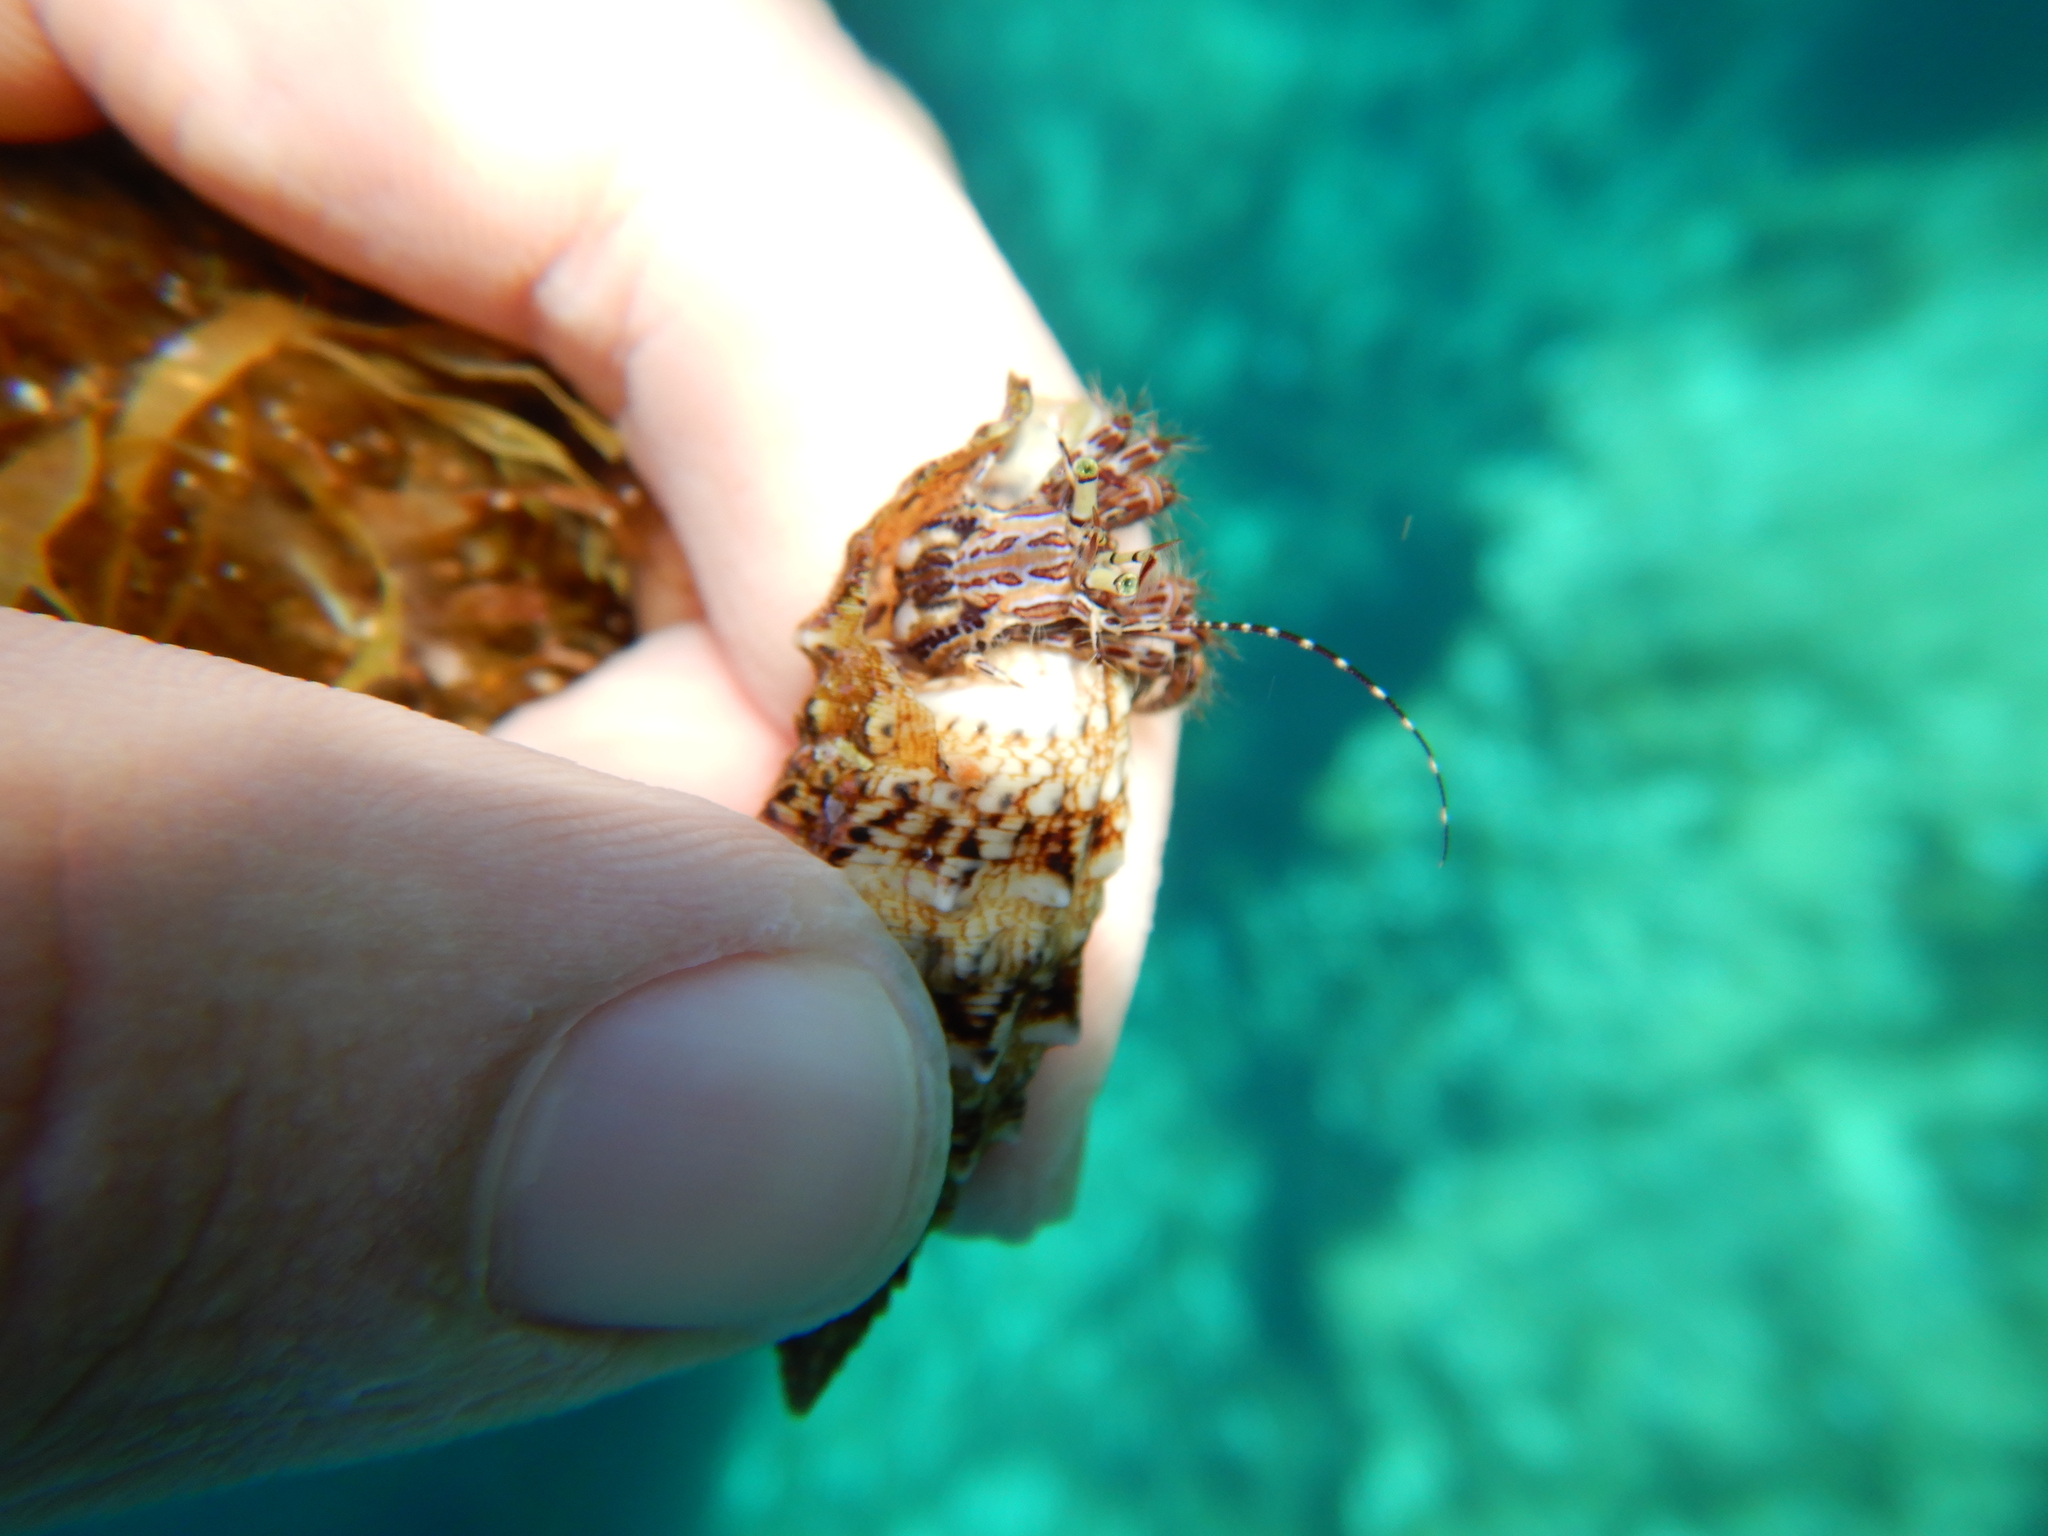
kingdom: Animalia
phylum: Arthropoda
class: Malacostraca
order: Decapoda
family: Paguridae
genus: Pagurus
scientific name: Pagurus anachoretus
